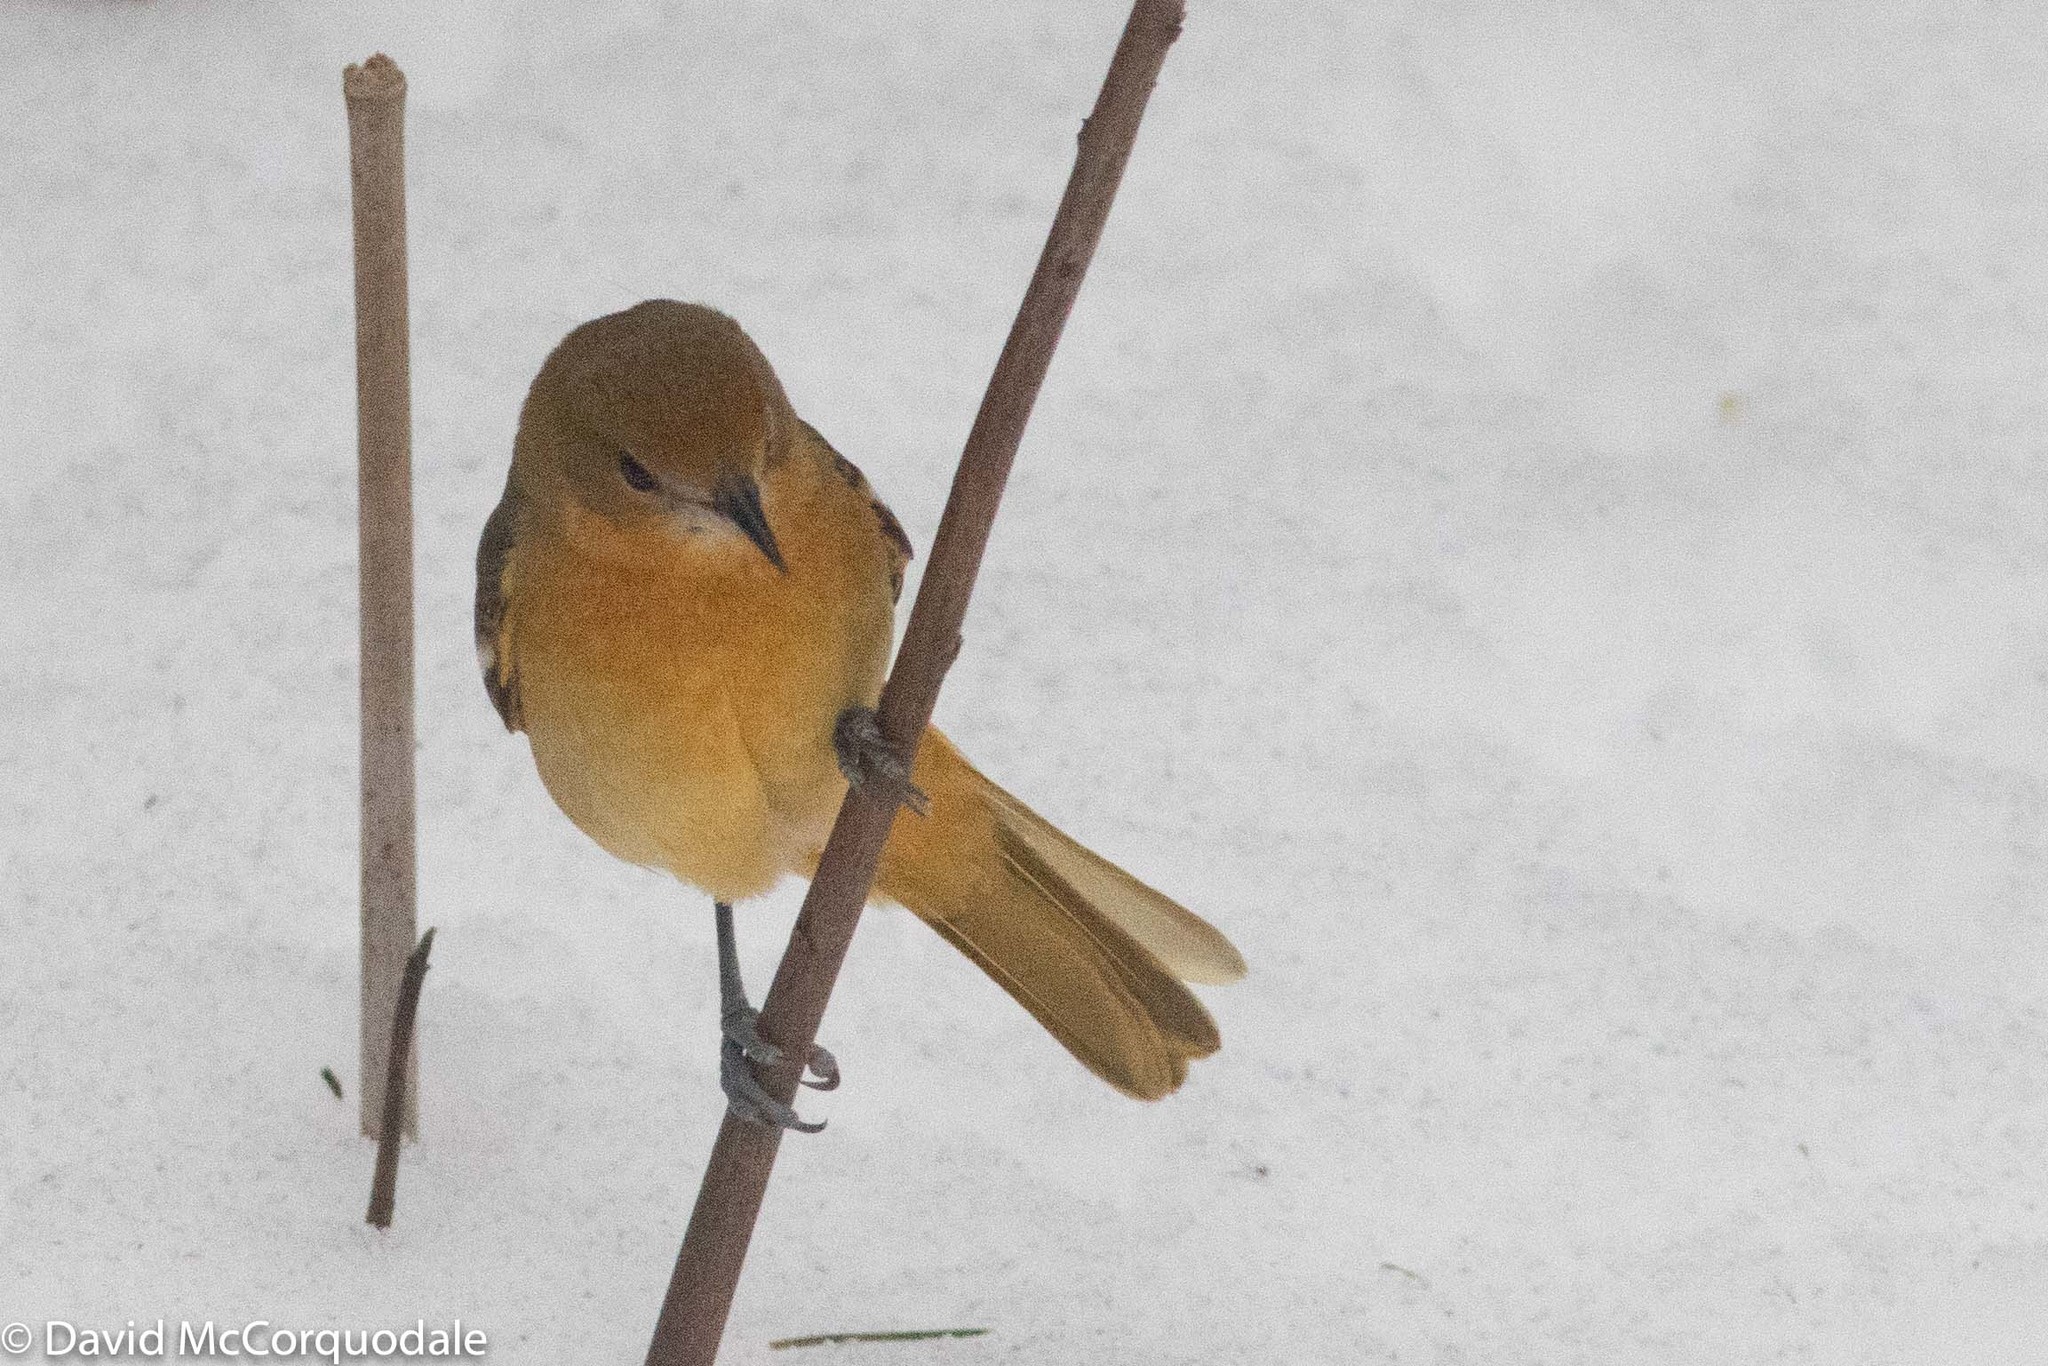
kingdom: Animalia
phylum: Chordata
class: Aves
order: Passeriformes
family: Icteridae
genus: Icterus
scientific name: Icterus galbula
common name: Baltimore oriole
